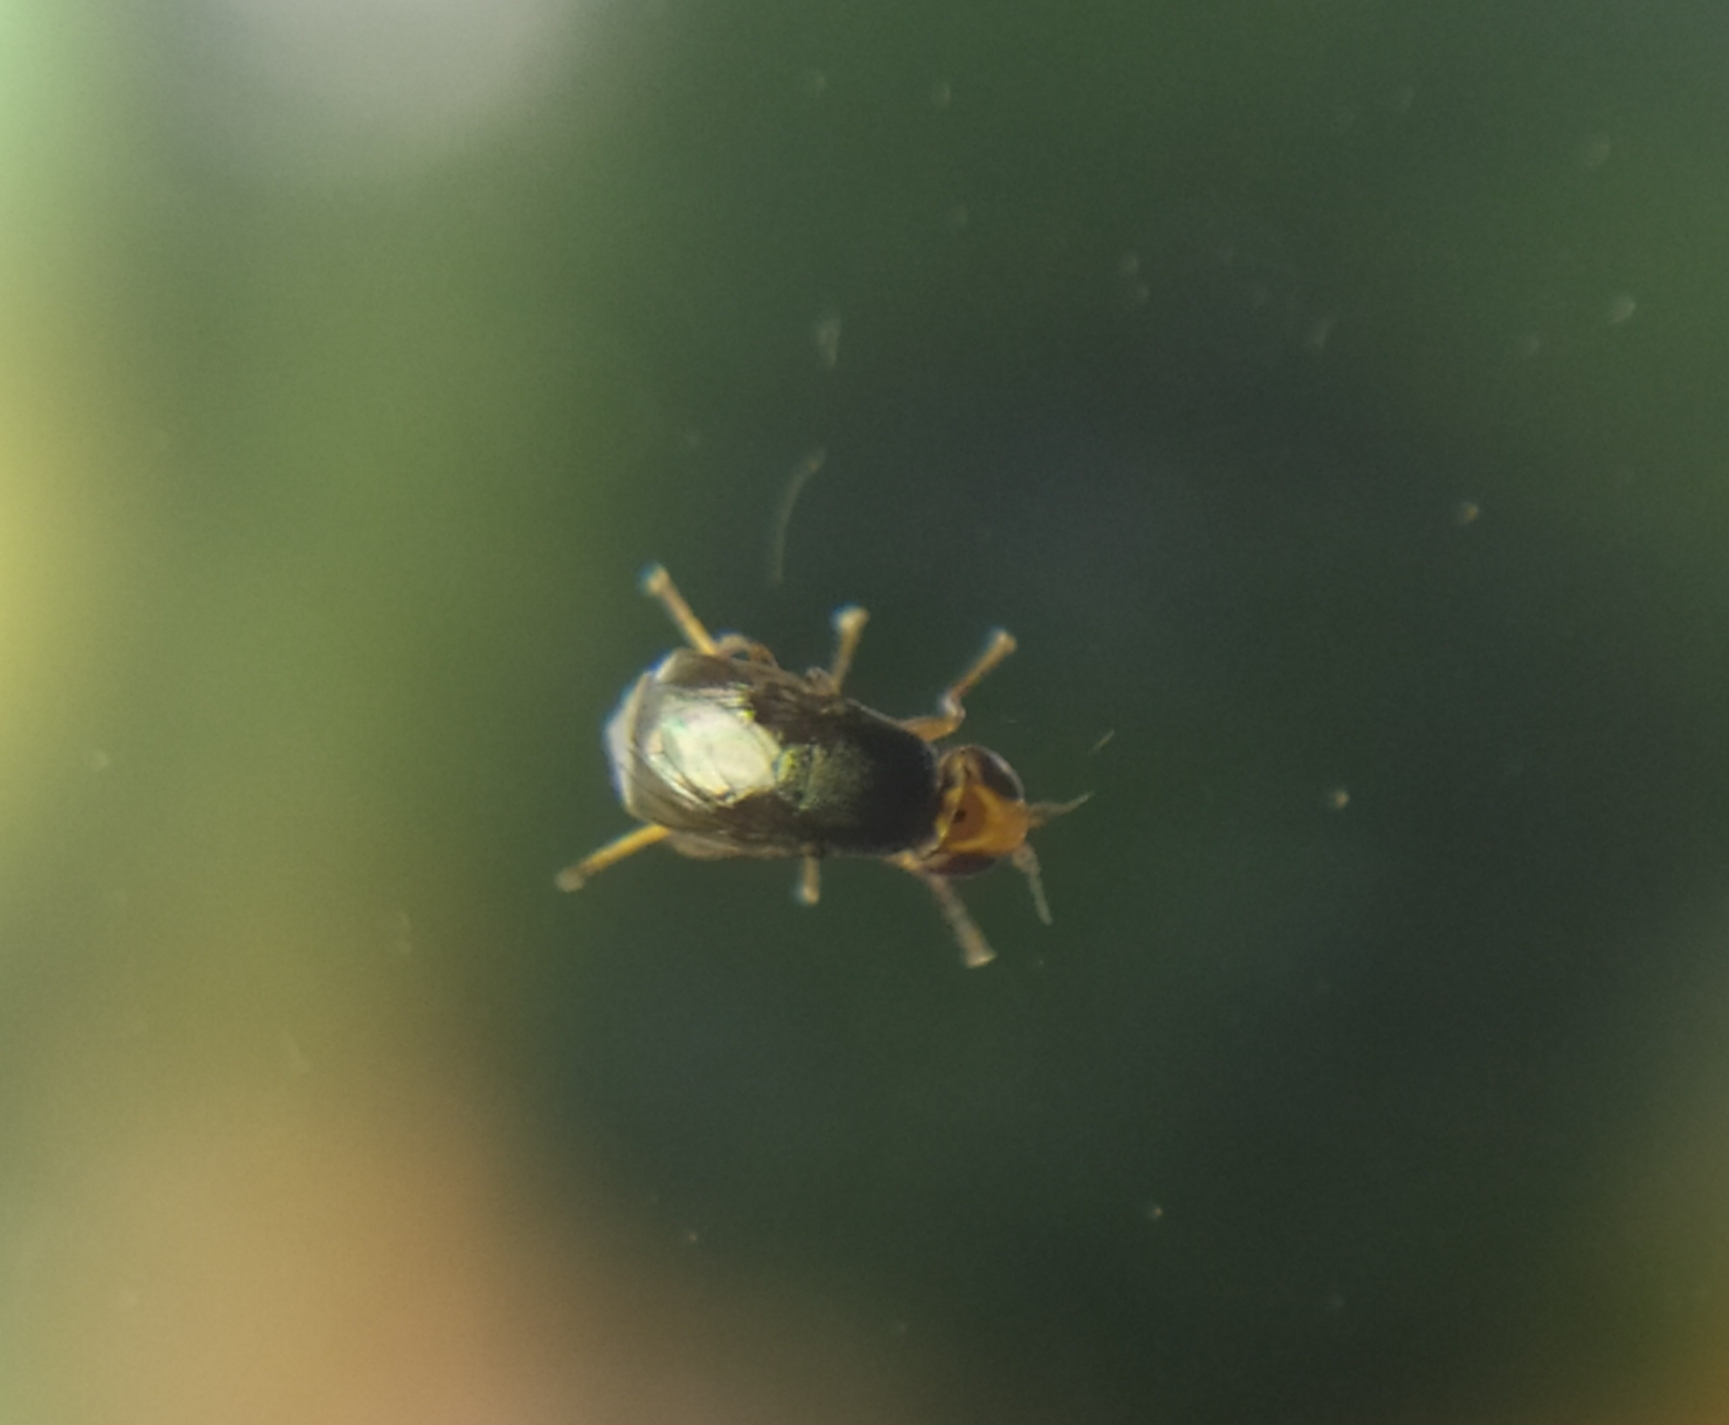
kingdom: Animalia
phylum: Arthropoda
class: Insecta
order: Diptera
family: Chloropidae
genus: Camarota
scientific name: Camarota curvipennis
